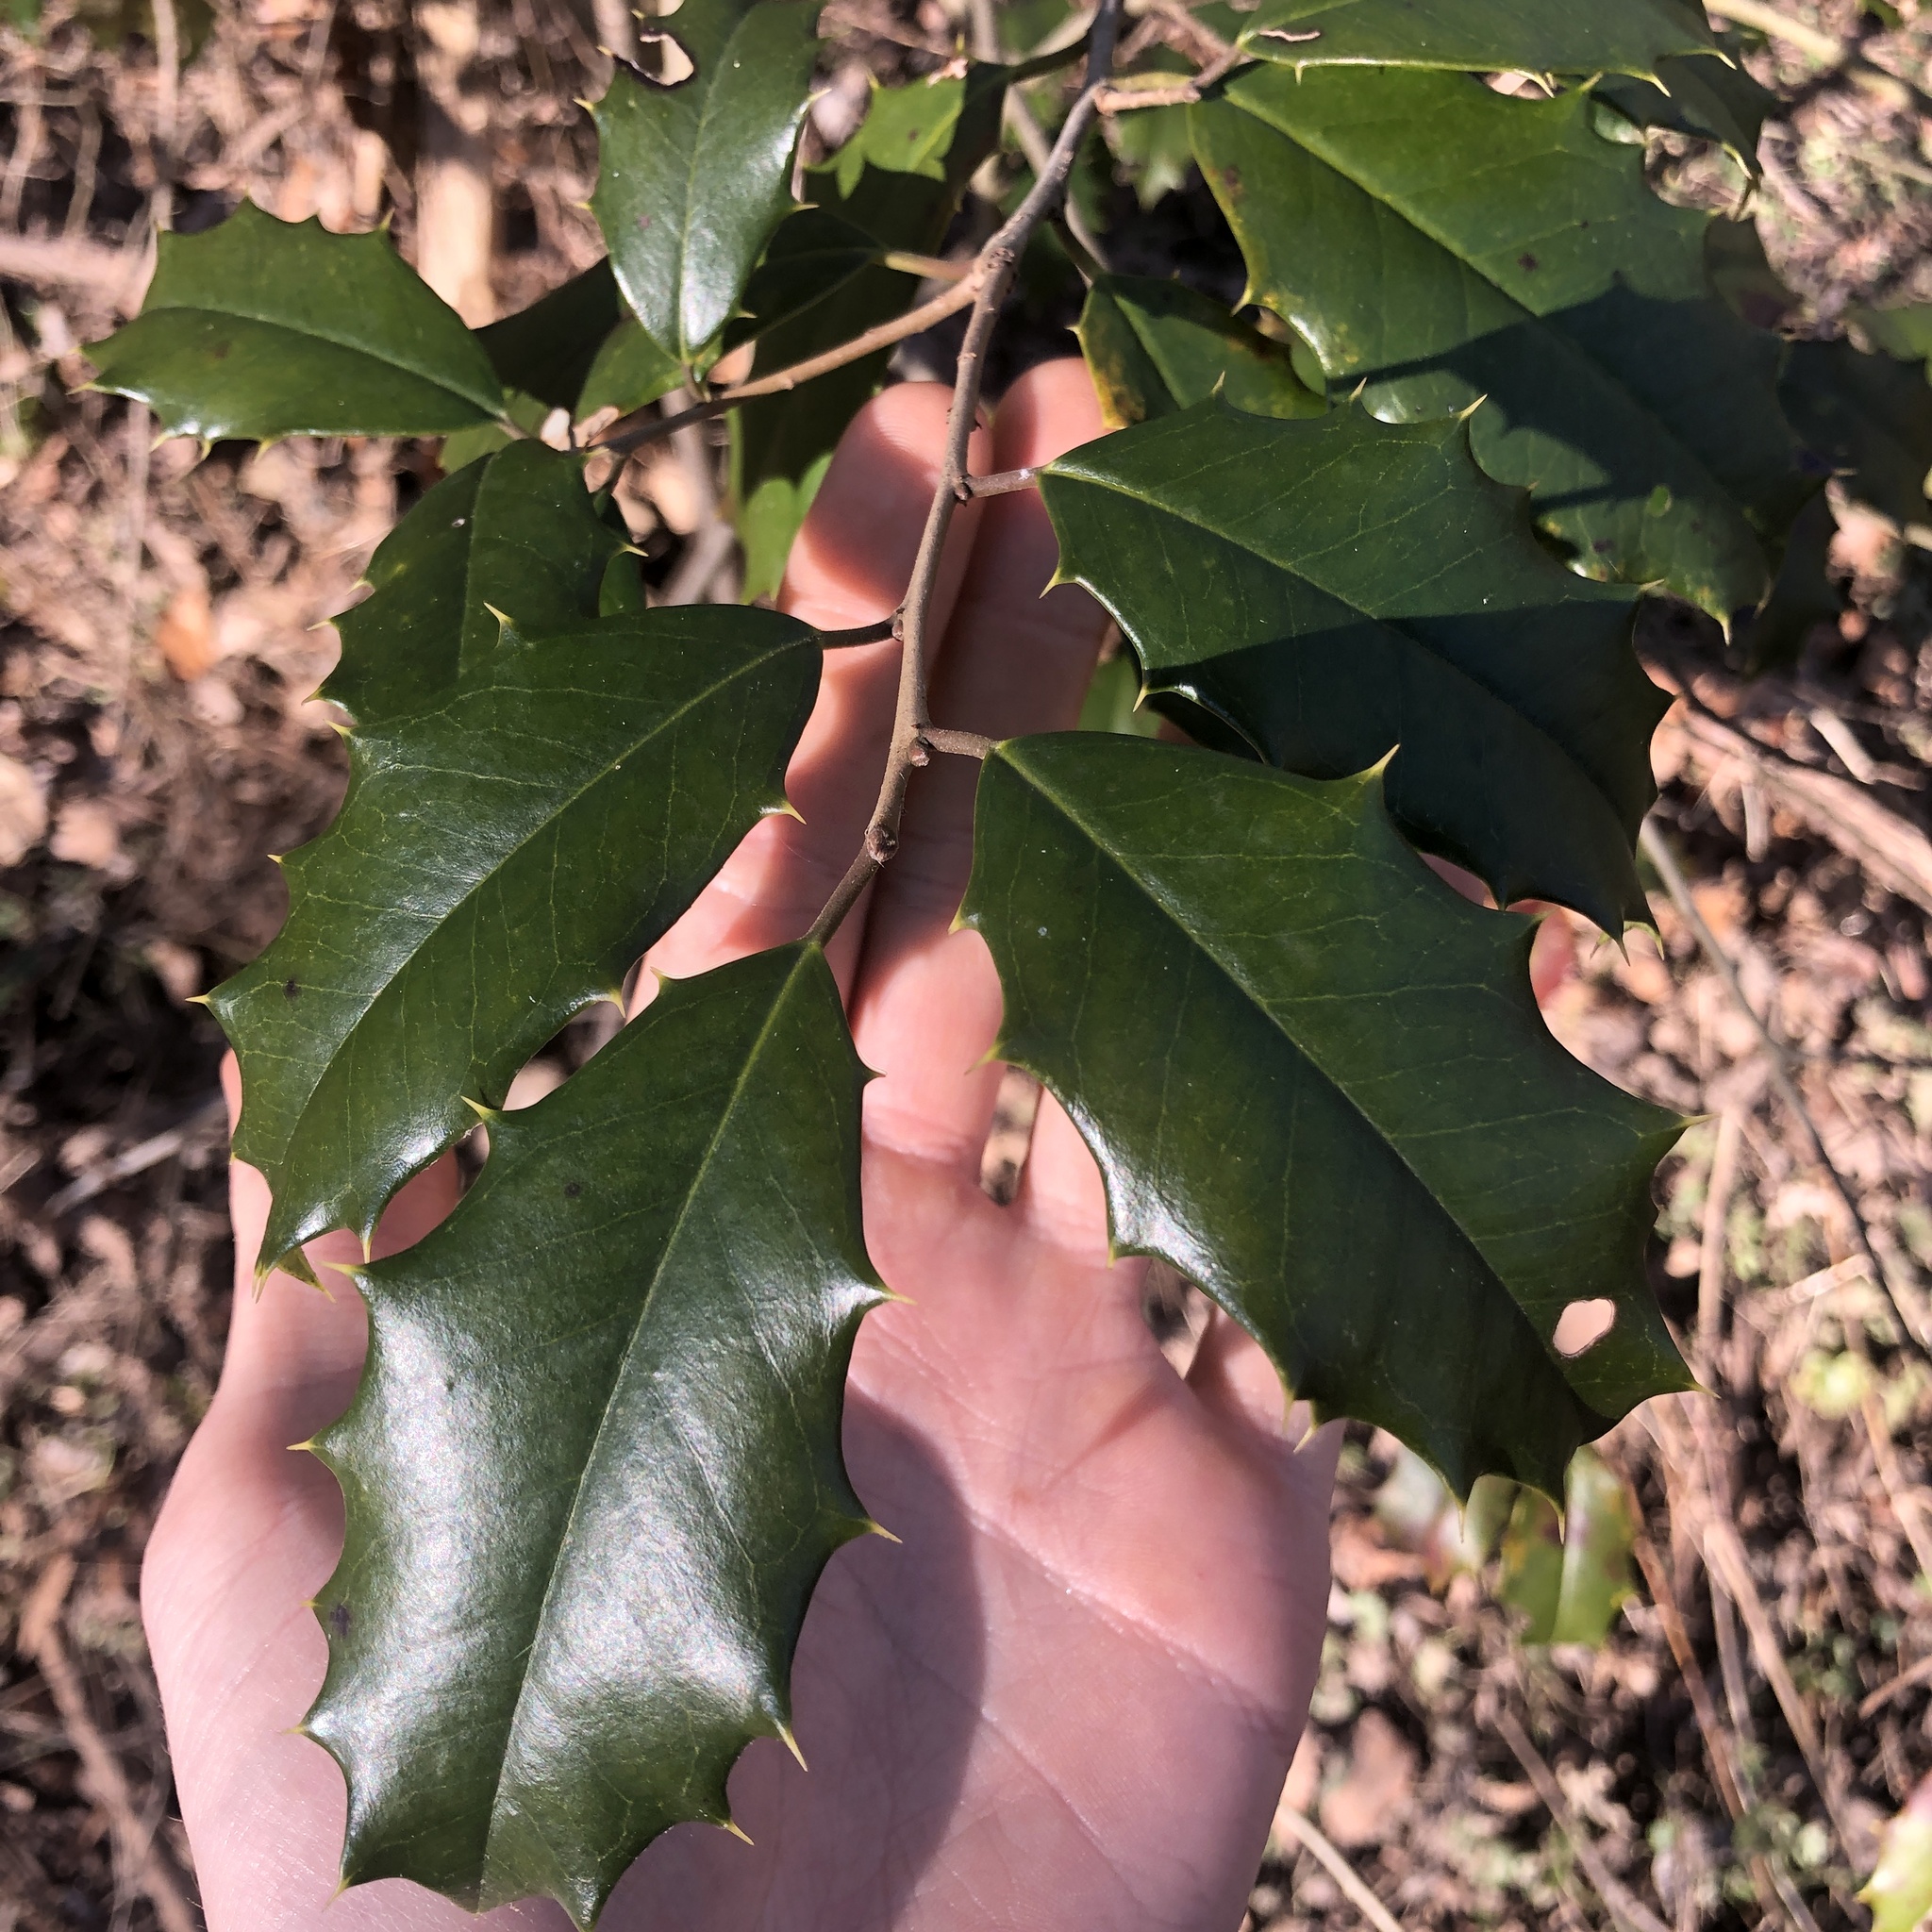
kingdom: Plantae
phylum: Tracheophyta
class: Magnoliopsida
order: Aquifoliales
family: Aquifoliaceae
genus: Ilex
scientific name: Ilex opaca
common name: American holly
